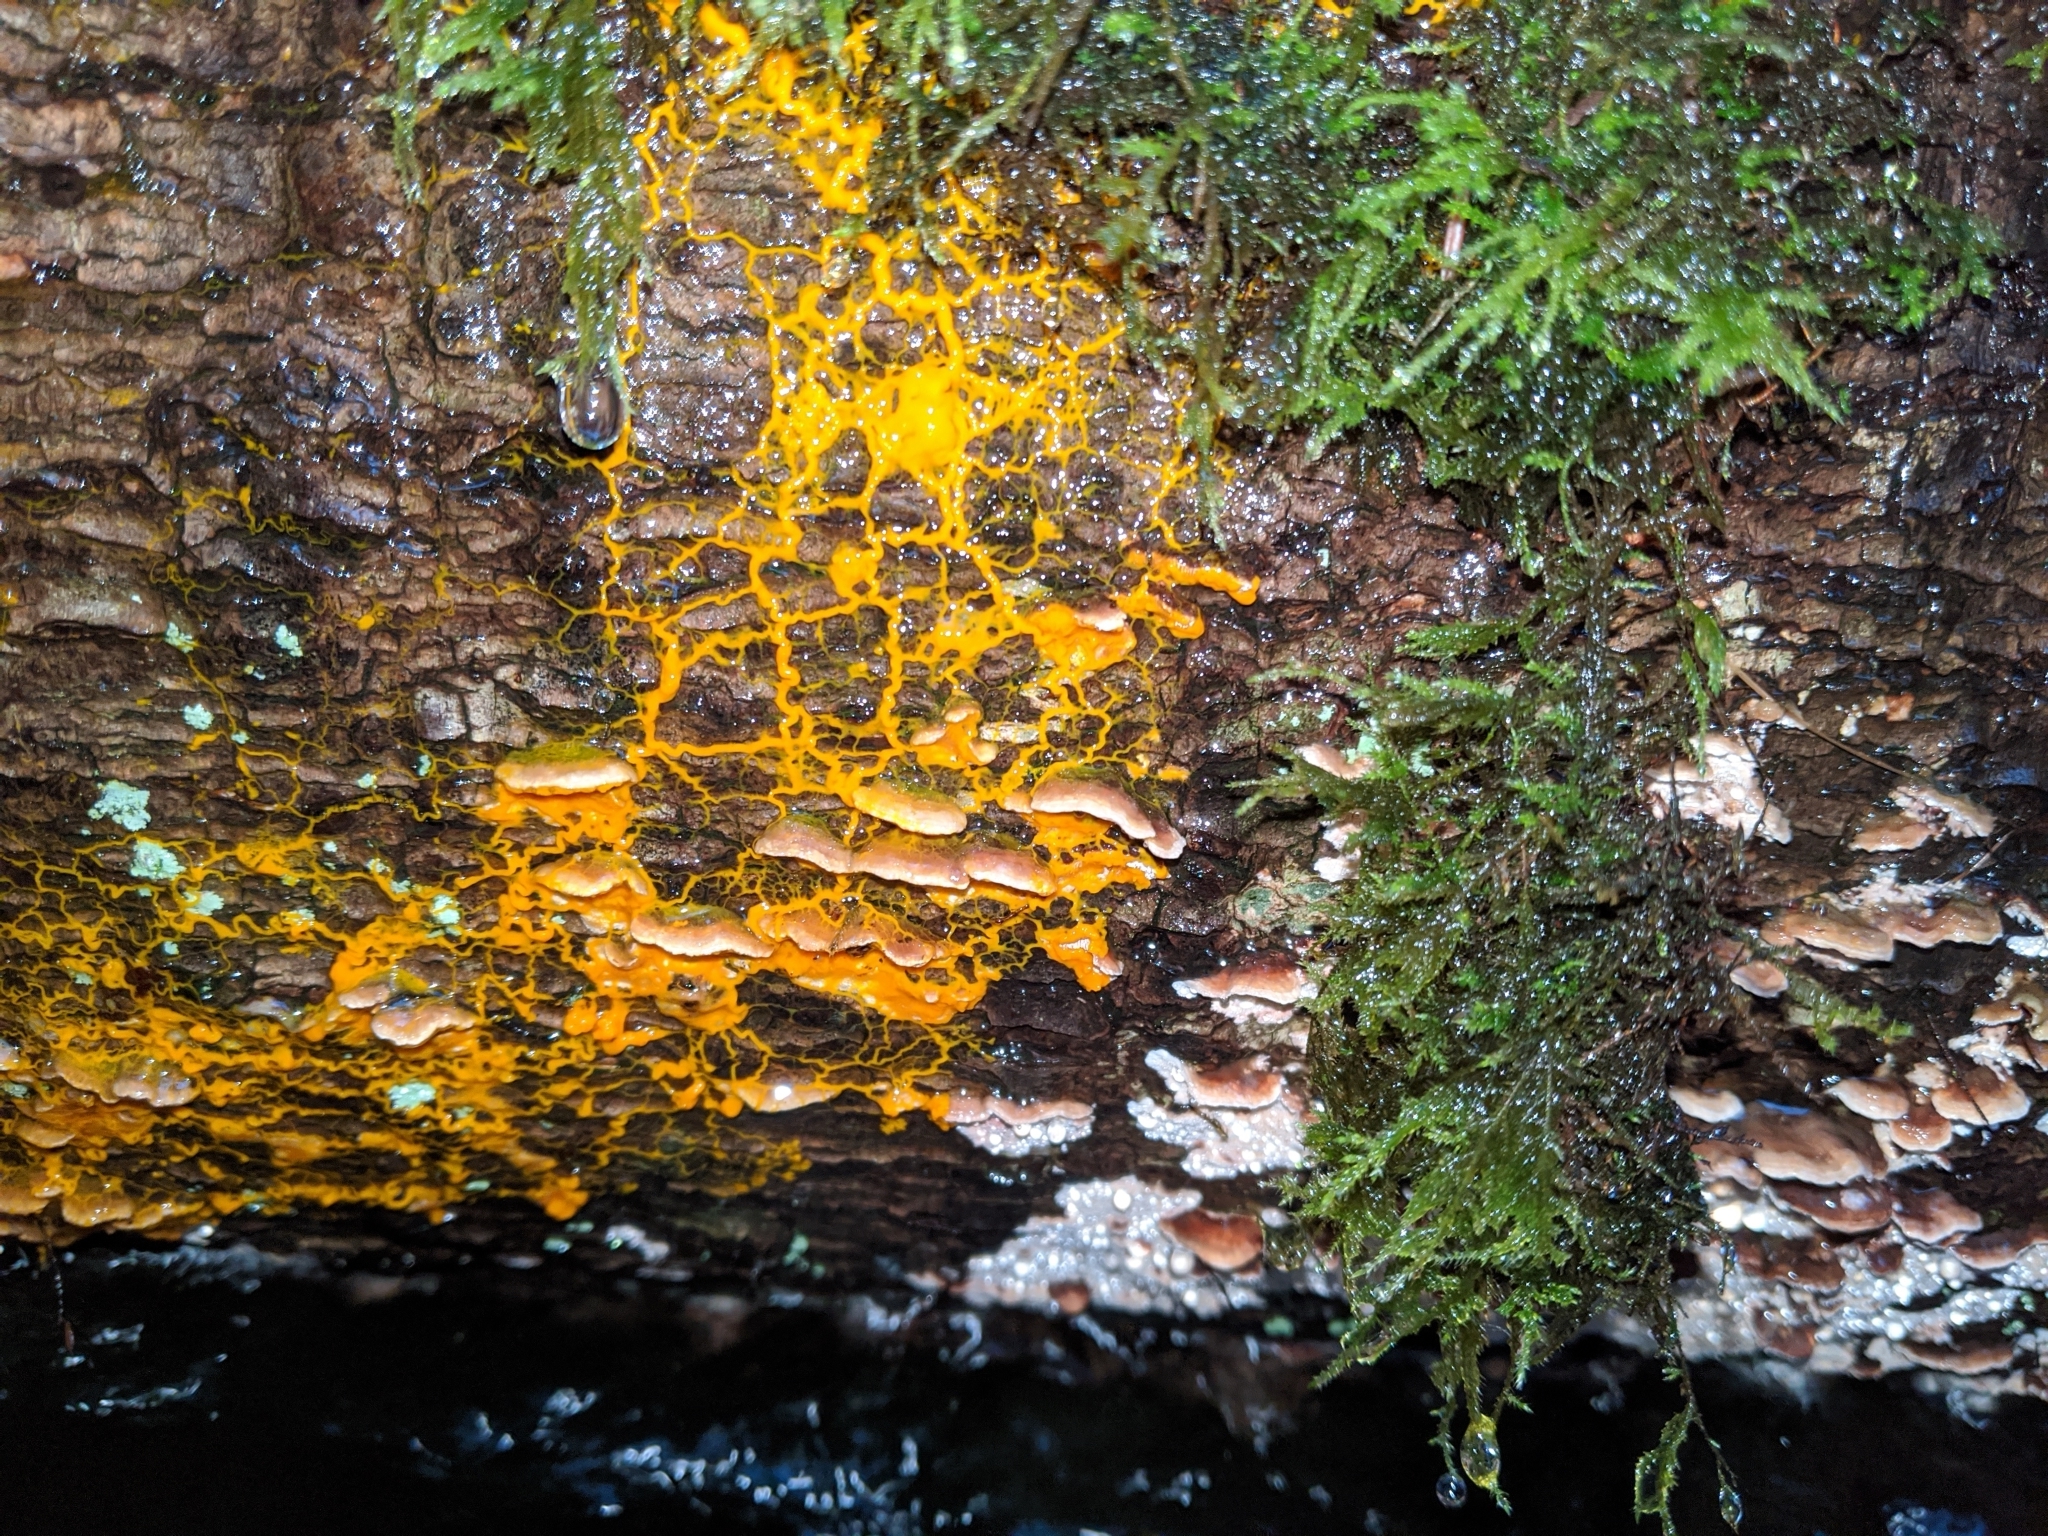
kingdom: Protozoa
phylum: Mycetozoa
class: Myxomycetes
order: Physarales
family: Physaraceae
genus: Badhamia
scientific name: Badhamia utricularis
